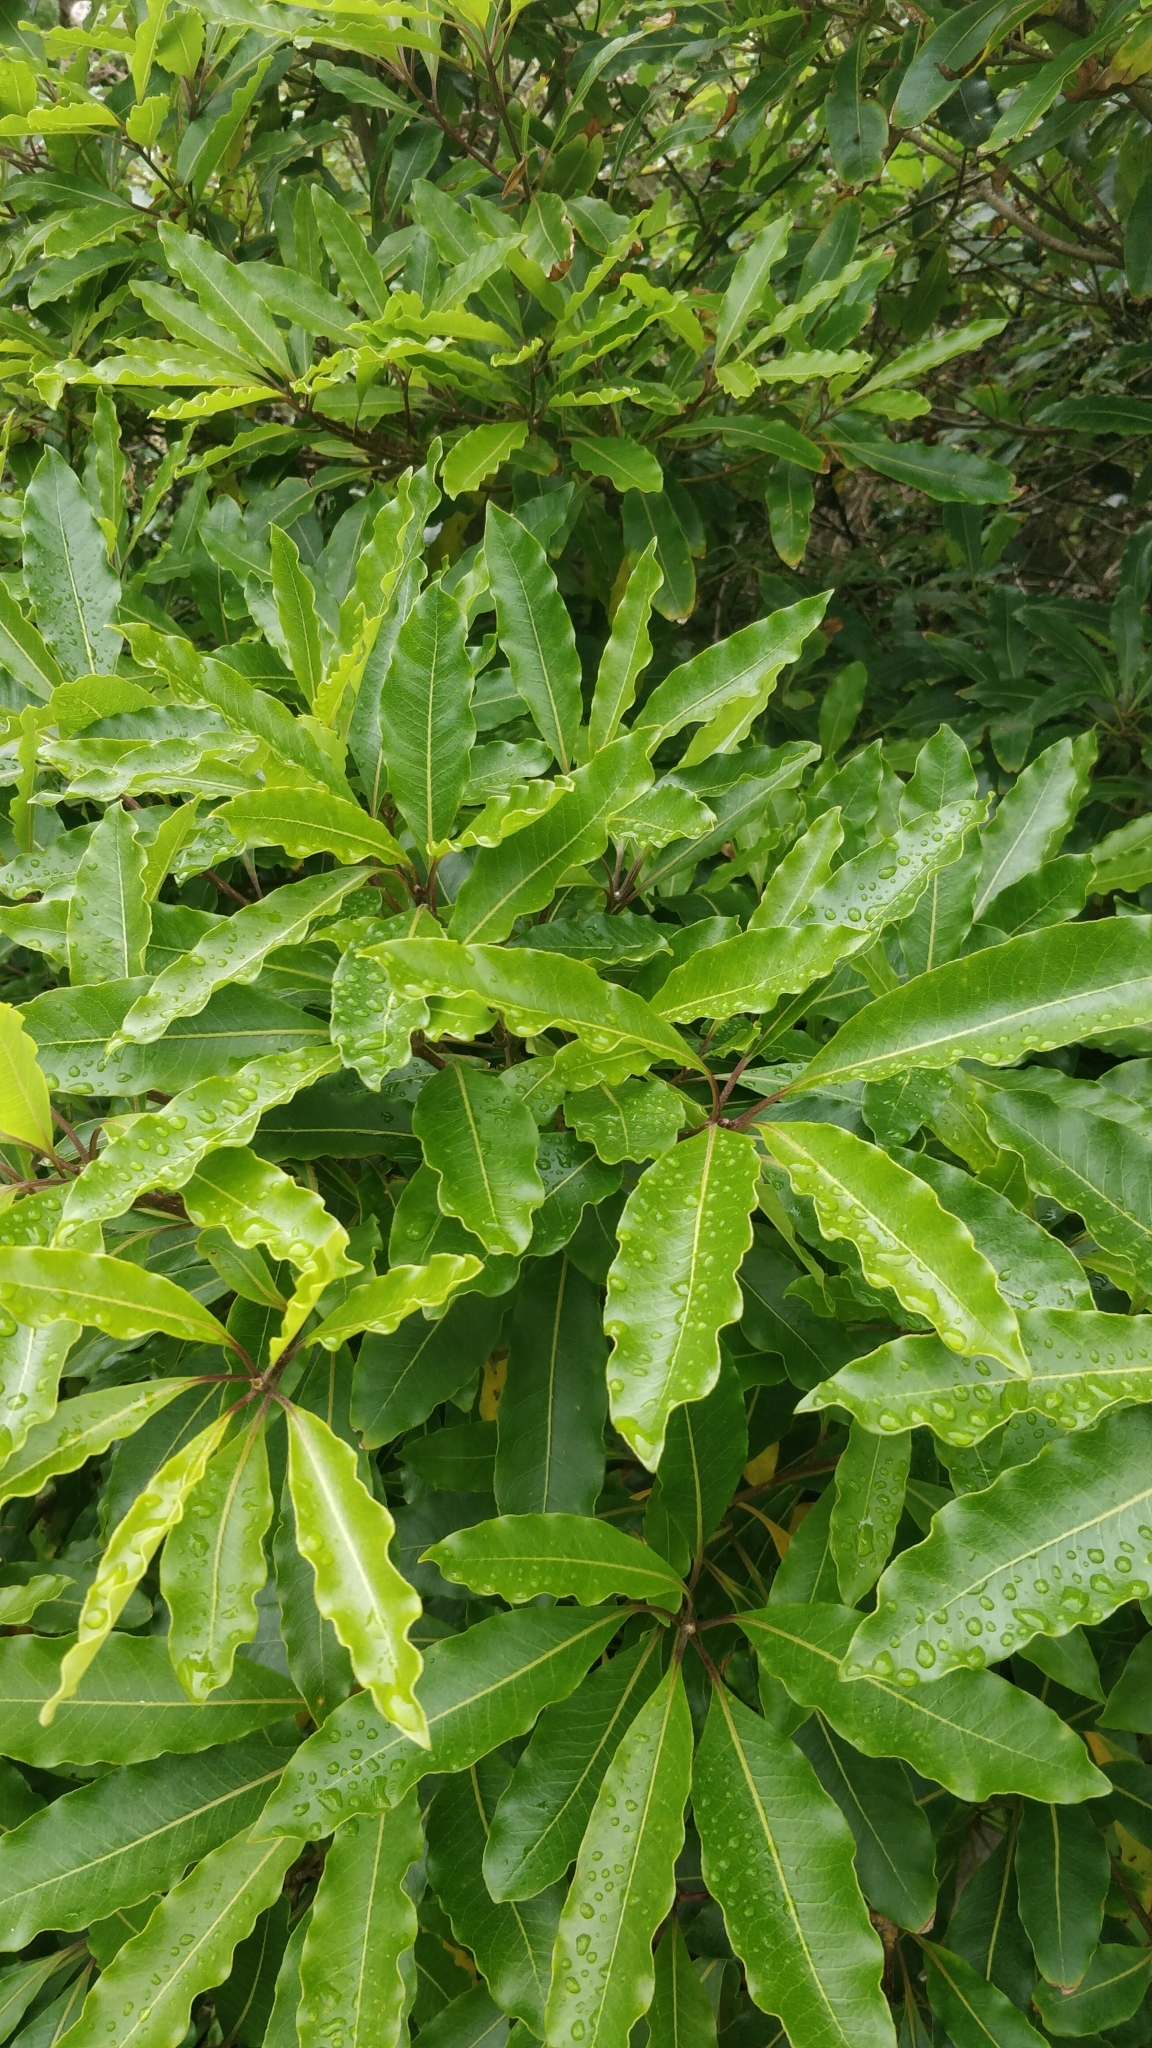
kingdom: Plantae
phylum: Tracheophyta
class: Magnoliopsida
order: Apiales
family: Pittosporaceae
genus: Pittosporum
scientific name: Pittosporum undulatum
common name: Australian cheesewood
